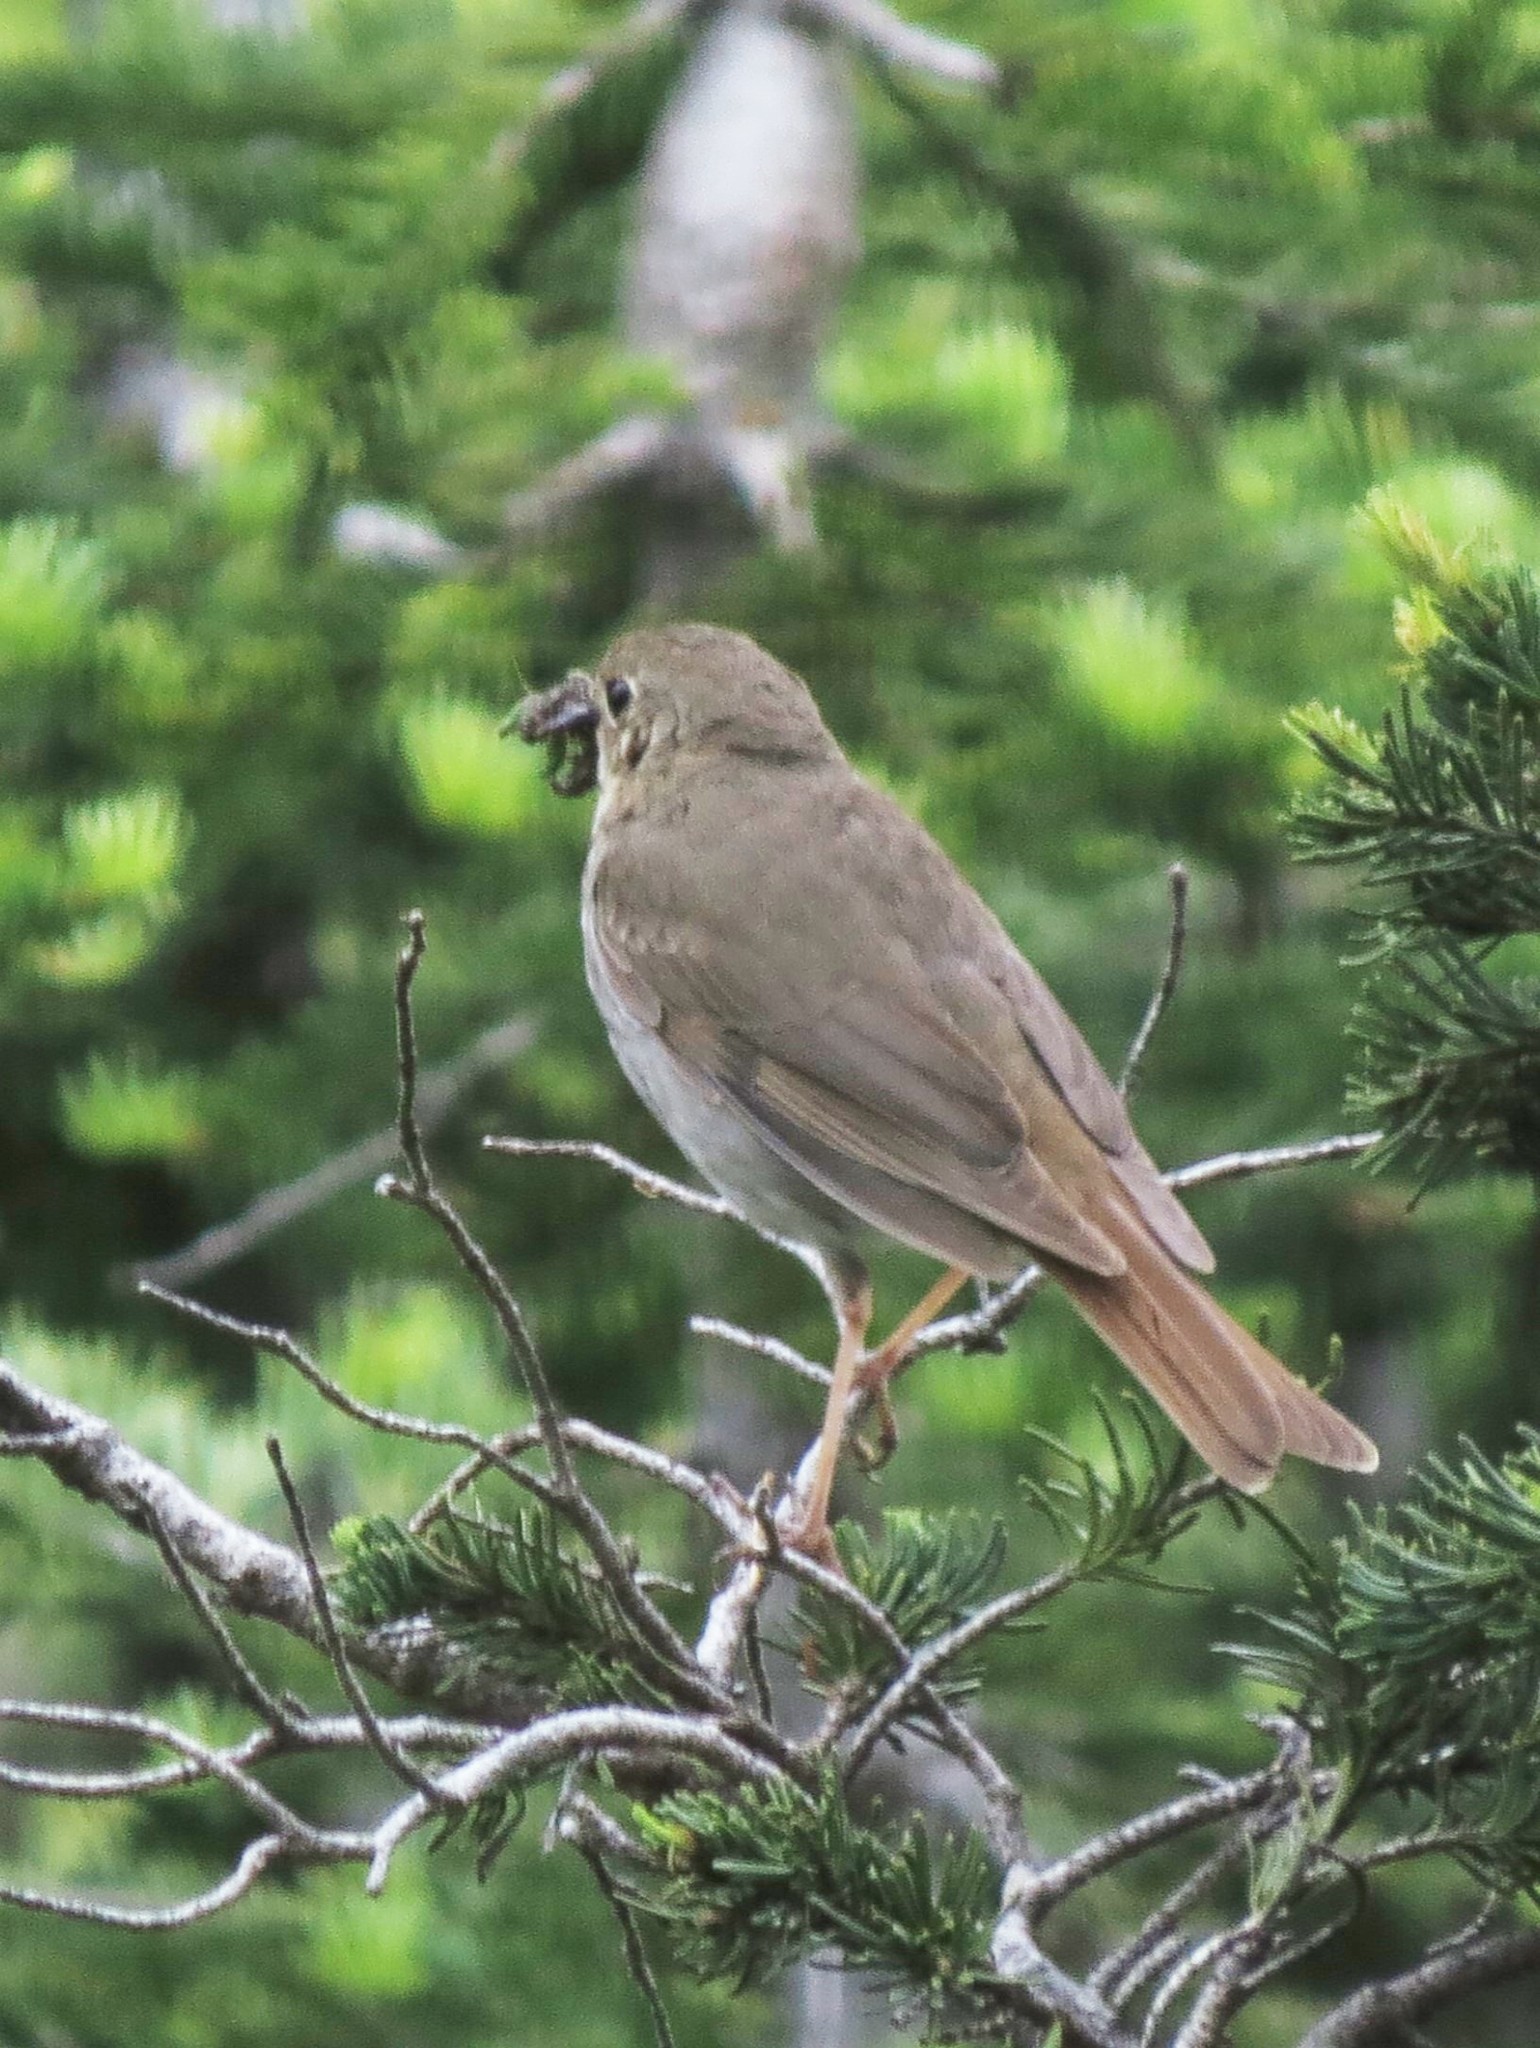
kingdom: Animalia
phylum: Chordata
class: Aves
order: Passeriformes
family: Turdidae
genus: Catharus
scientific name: Catharus guttatus
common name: Hermit thrush
